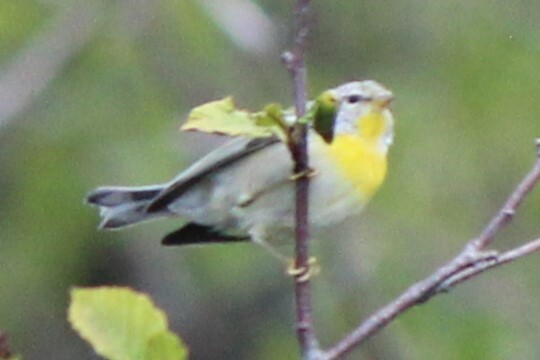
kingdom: Animalia
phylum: Chordata
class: Aves
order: Passeriformes
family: Parulidae
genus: Setophaga
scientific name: Setophaga americana
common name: Northern parula
